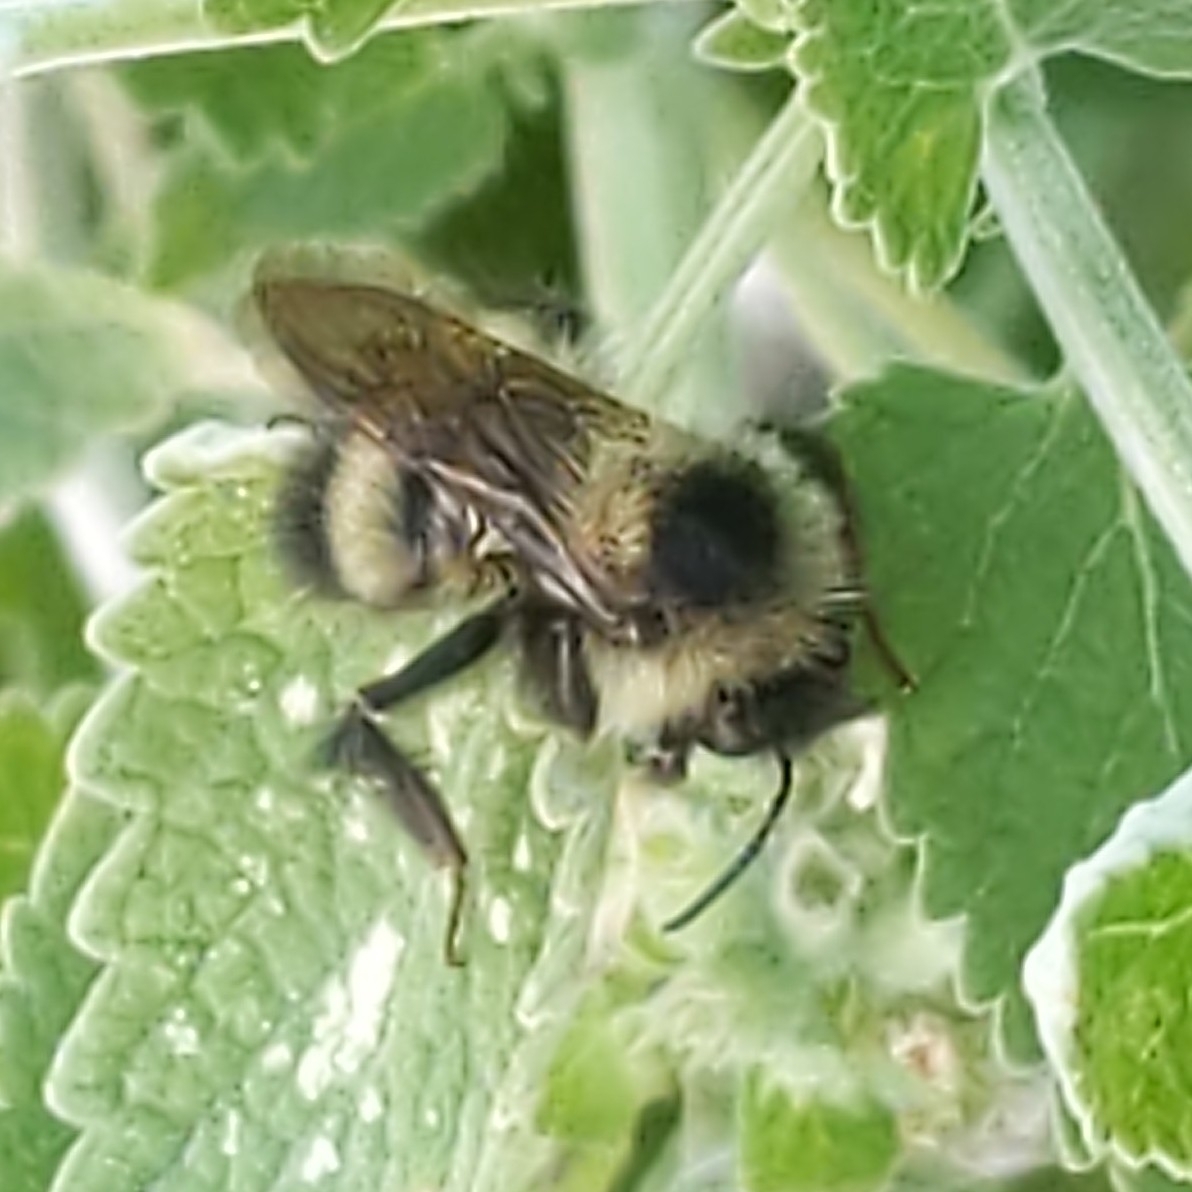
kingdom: Animalia
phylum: Arthropoda
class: Insecta
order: Hymenoptera
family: Apidae
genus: Bombus
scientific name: Bombus
